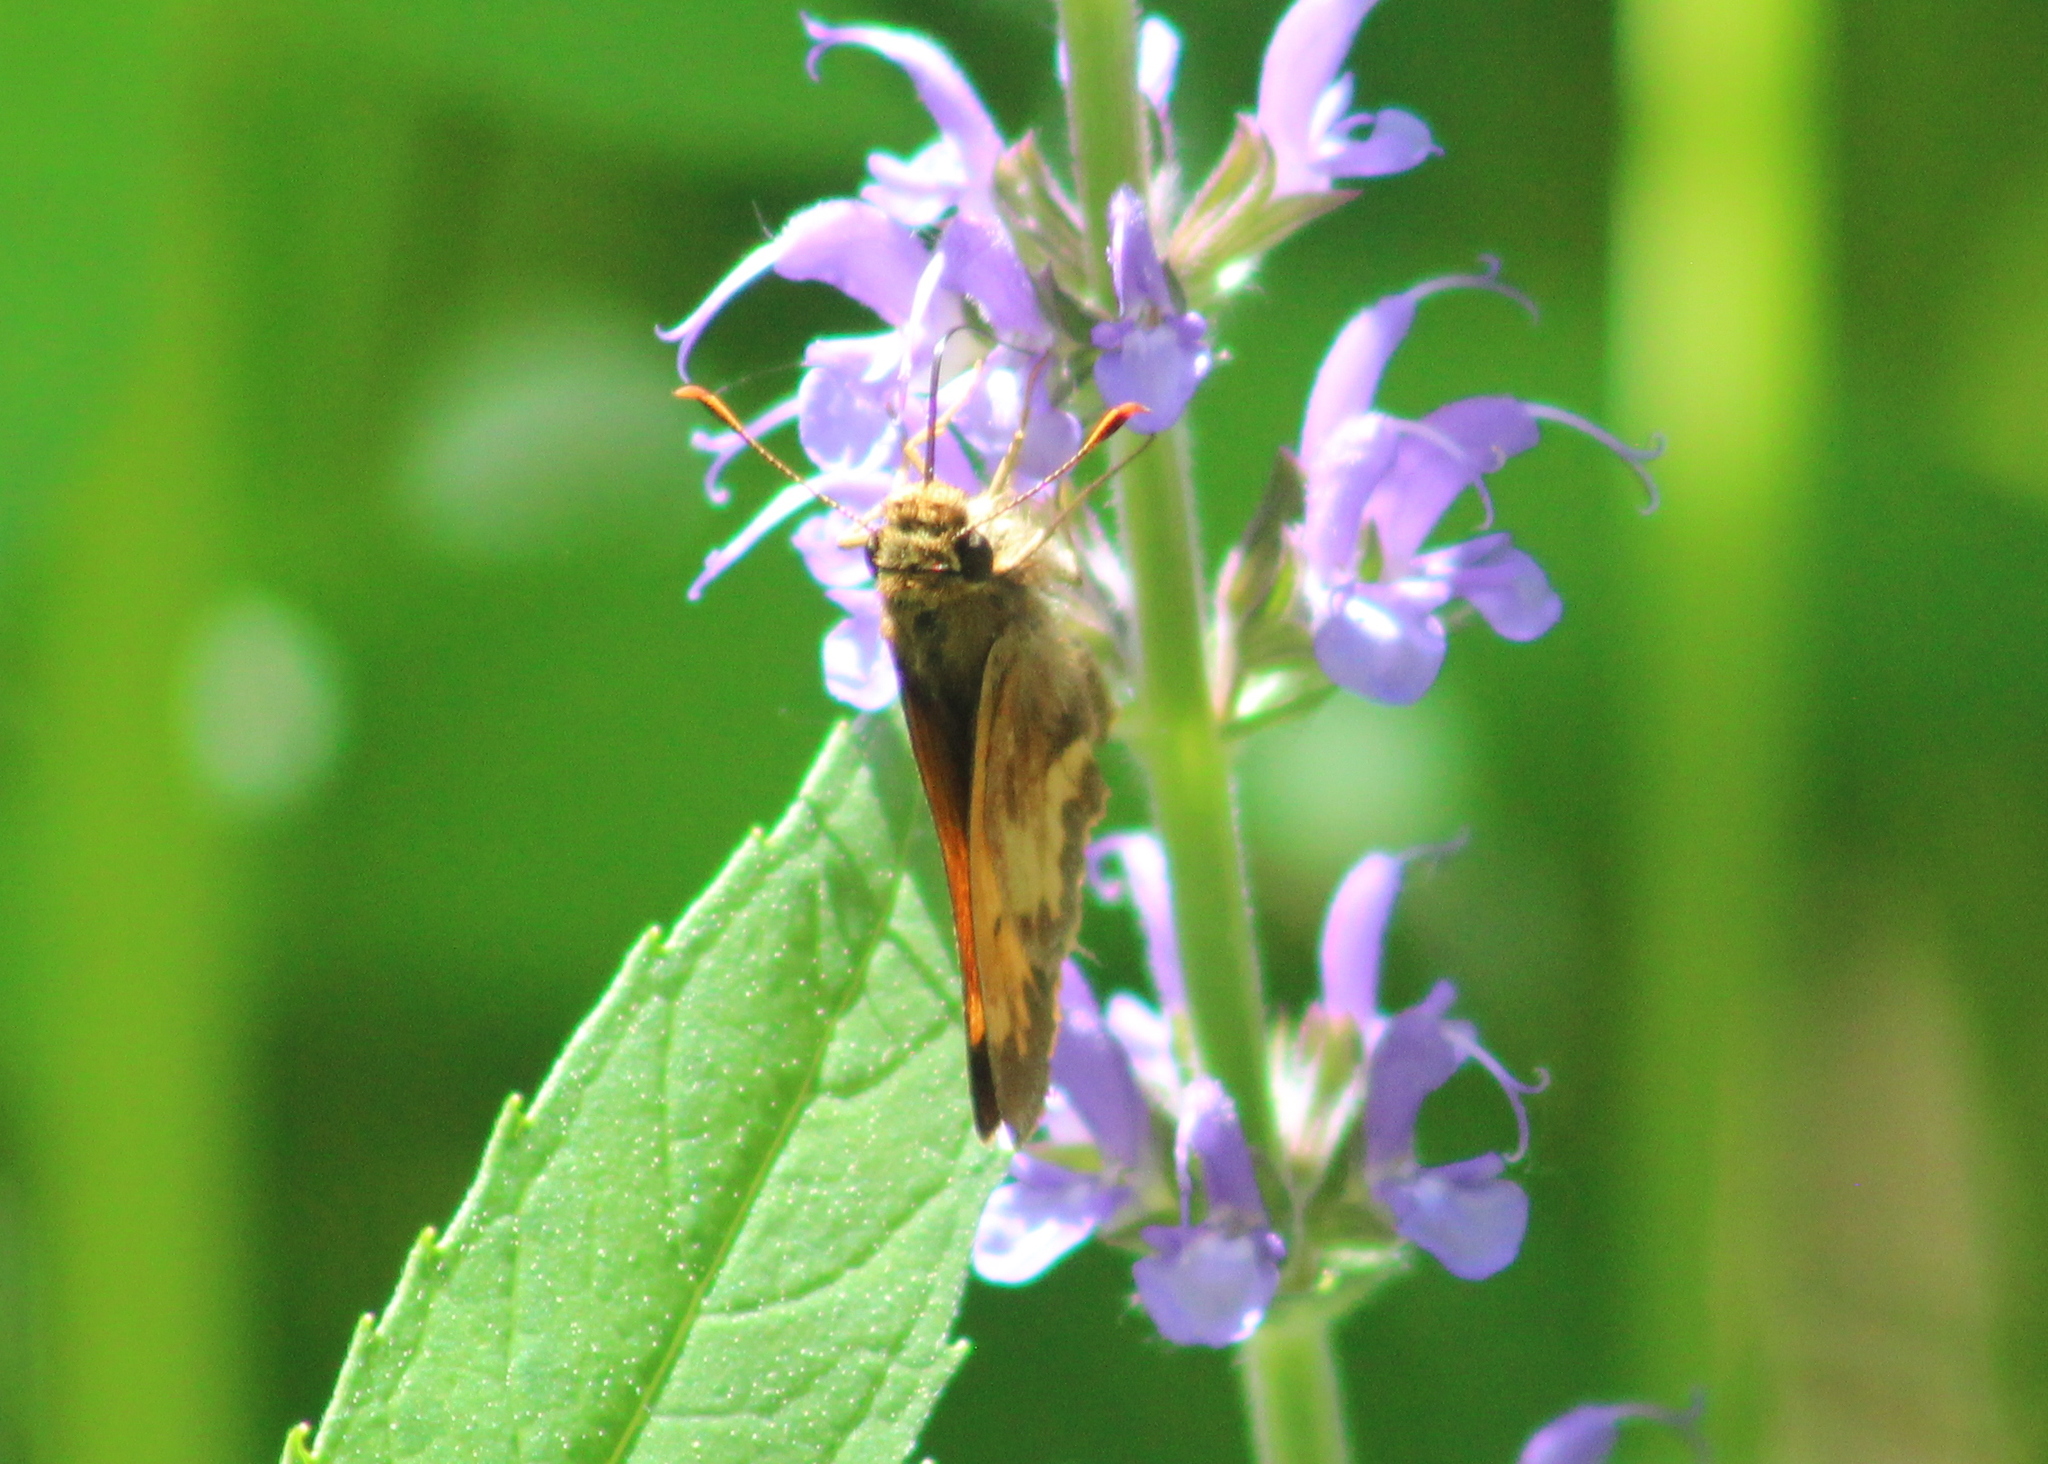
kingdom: Animalia
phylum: Arthropoda
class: Insecta
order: Lepidoptera
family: Hesperiidae
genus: Lon
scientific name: Lon hobomok
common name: Hobomok skipper
